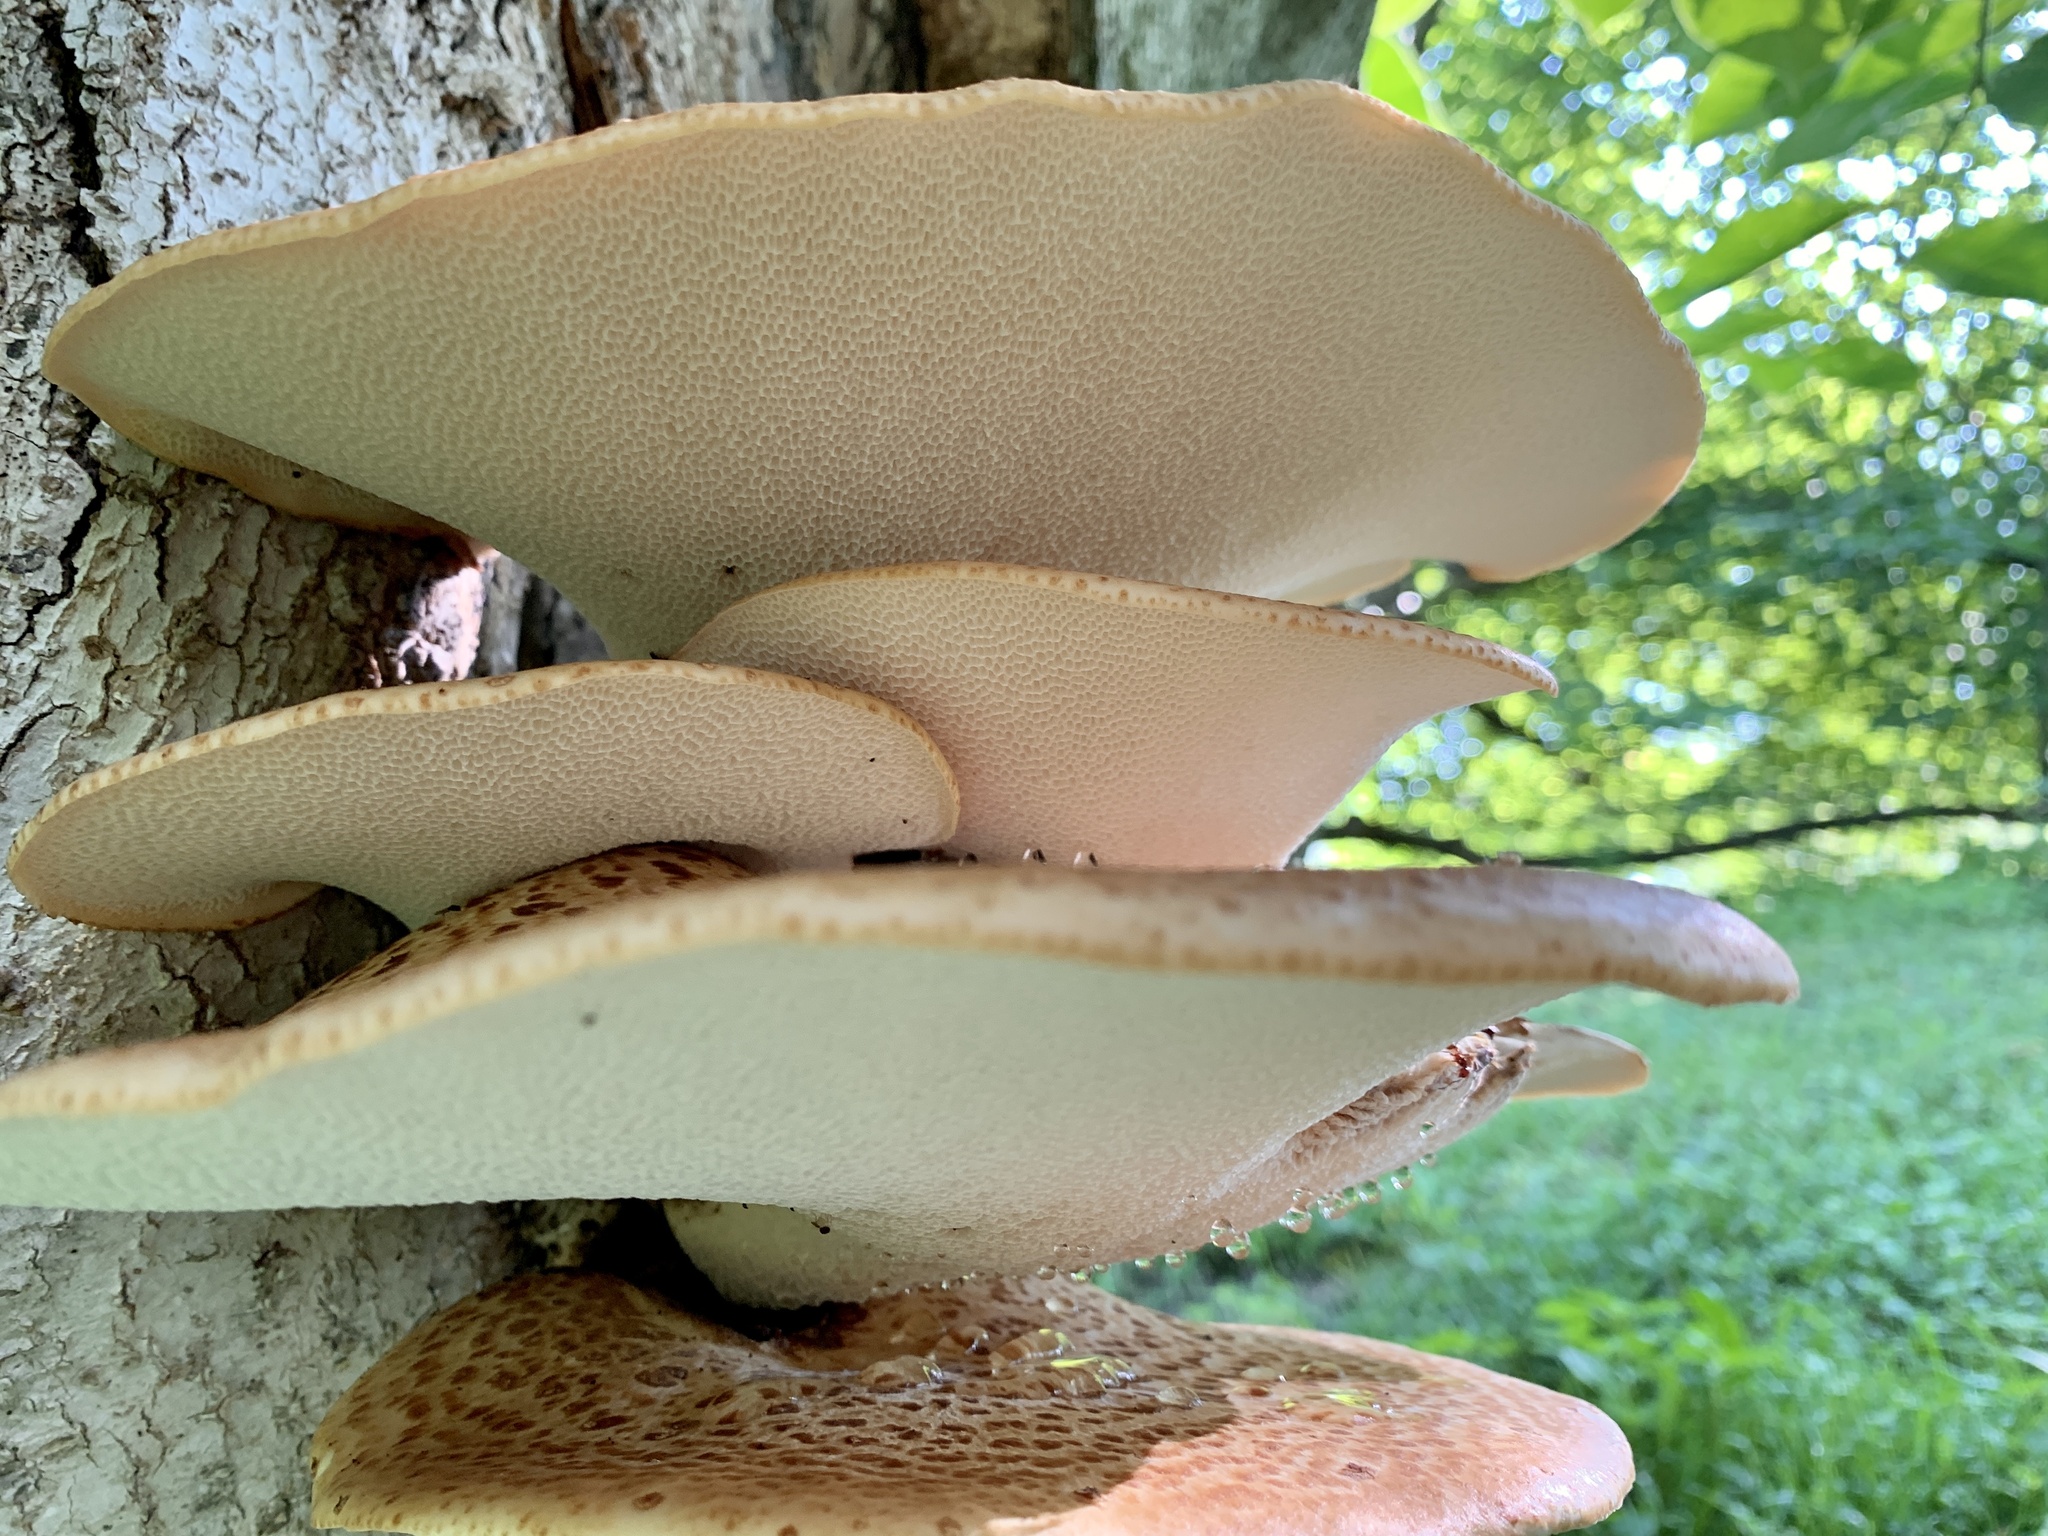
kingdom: Fungi
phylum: Basidiomycota
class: Agaricomycetes
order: Polyporales
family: Polyporaceae
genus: Cerioporus
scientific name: Cerioporus squamosus
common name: Dryad's saddle
